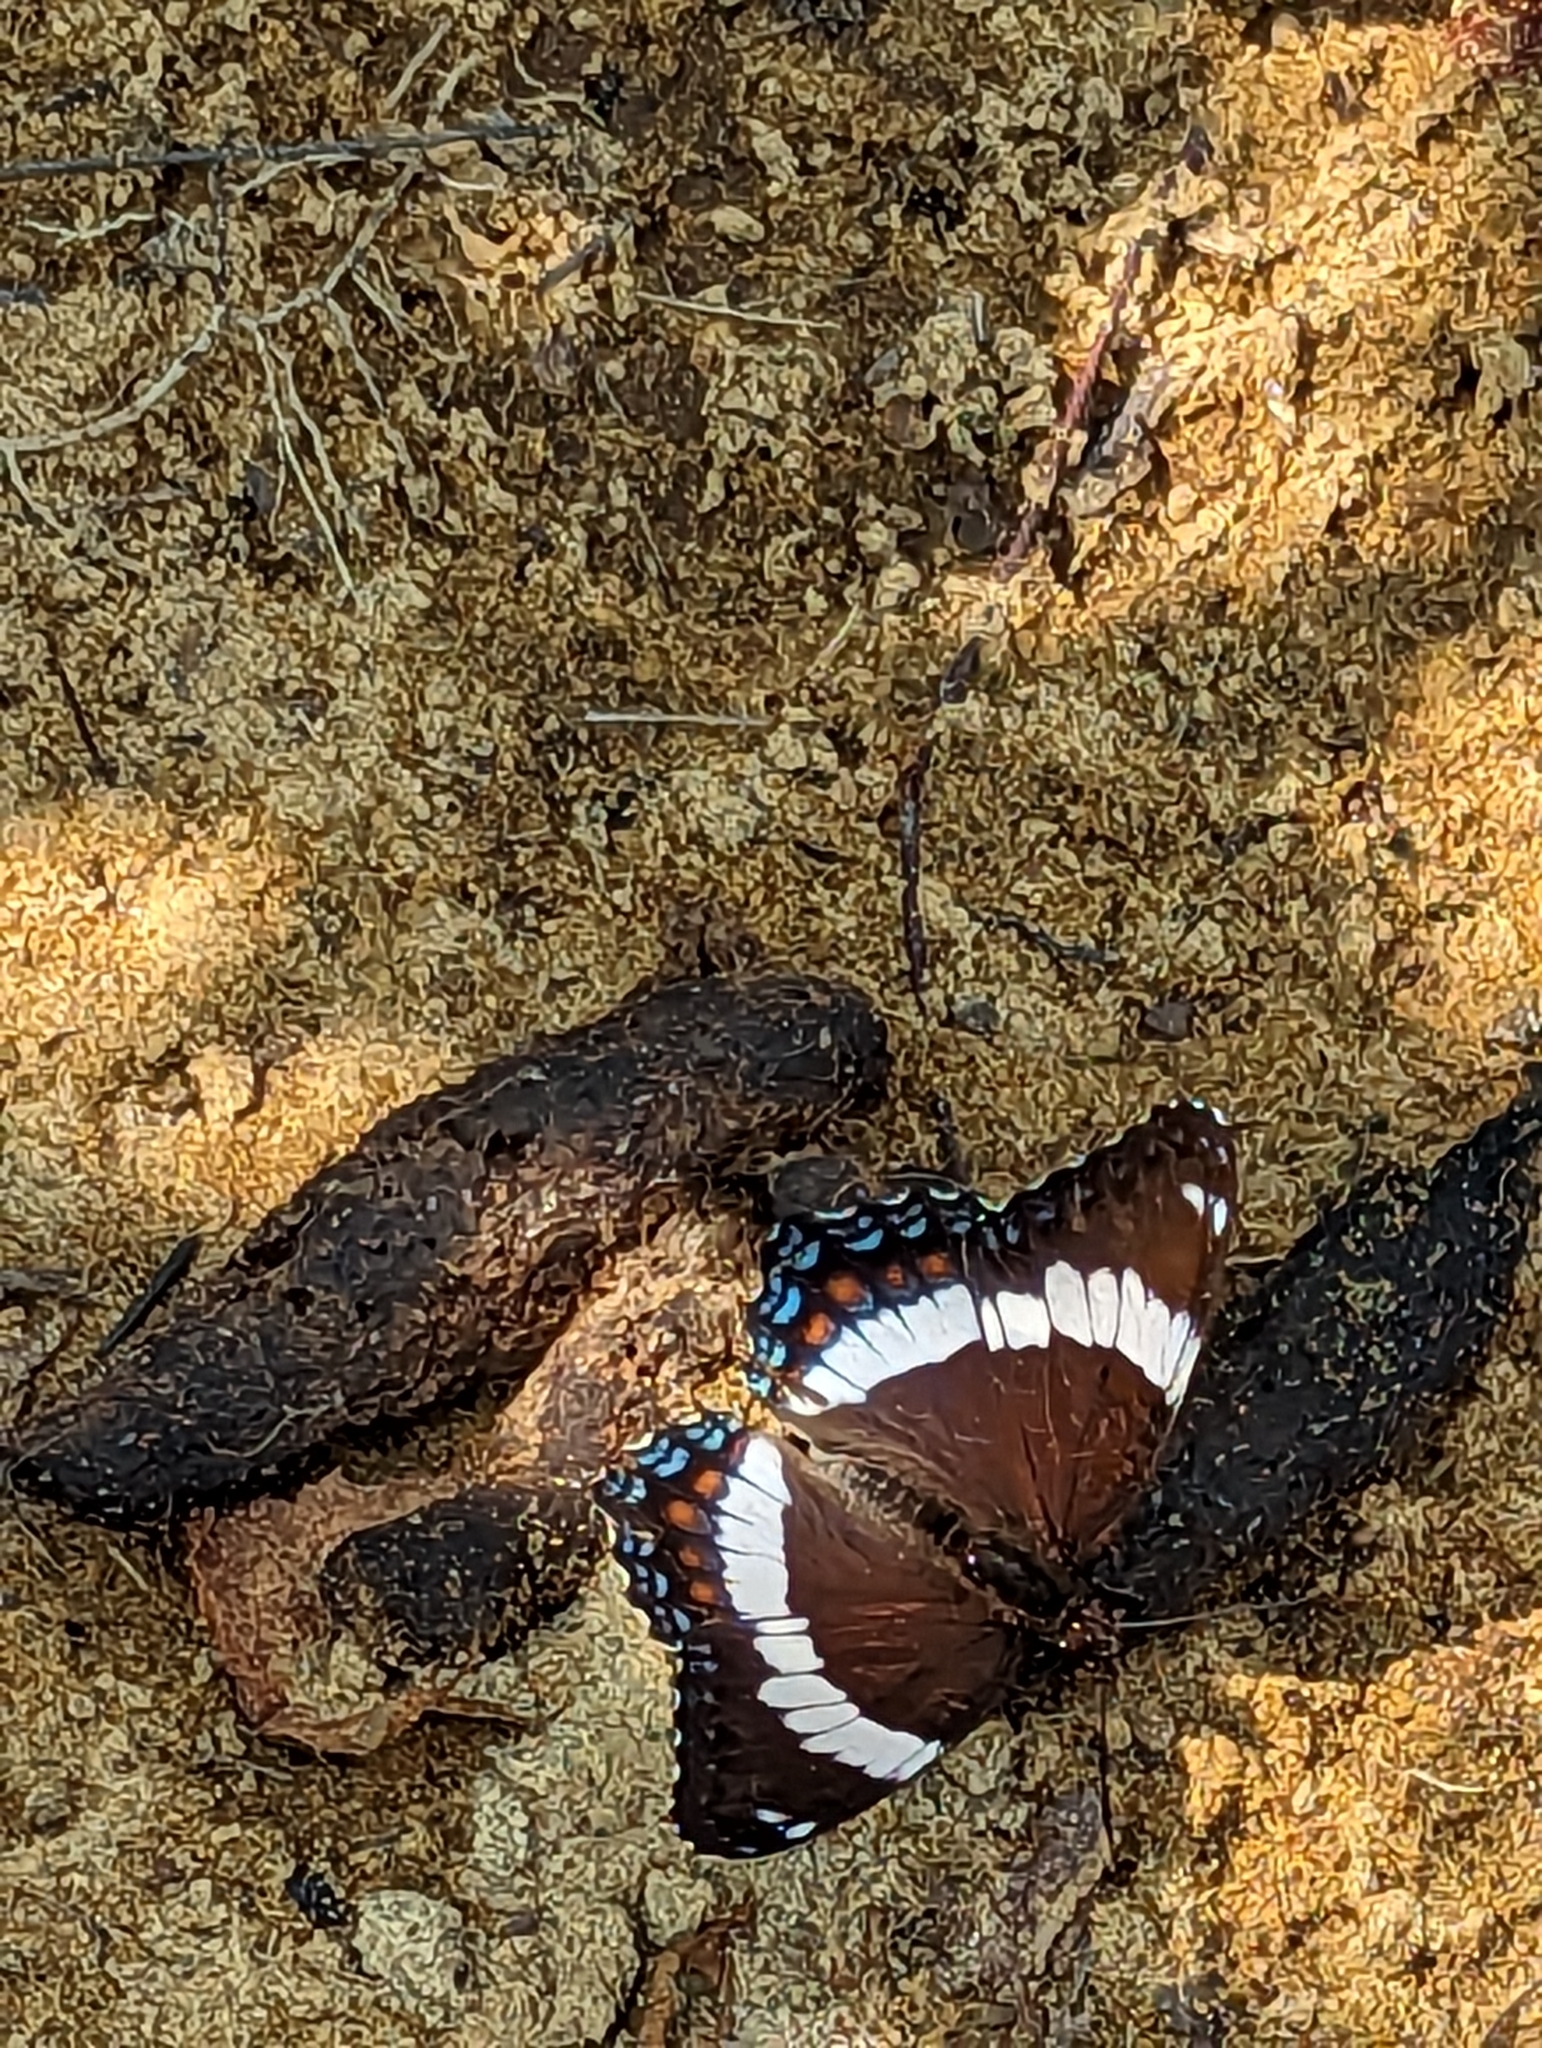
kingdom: Animalia
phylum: Arthropoda
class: Insecta
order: Lepidoptera
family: Nymphalidae
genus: Limenitis
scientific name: Limenitis arthemis
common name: Red-spotted admiral
